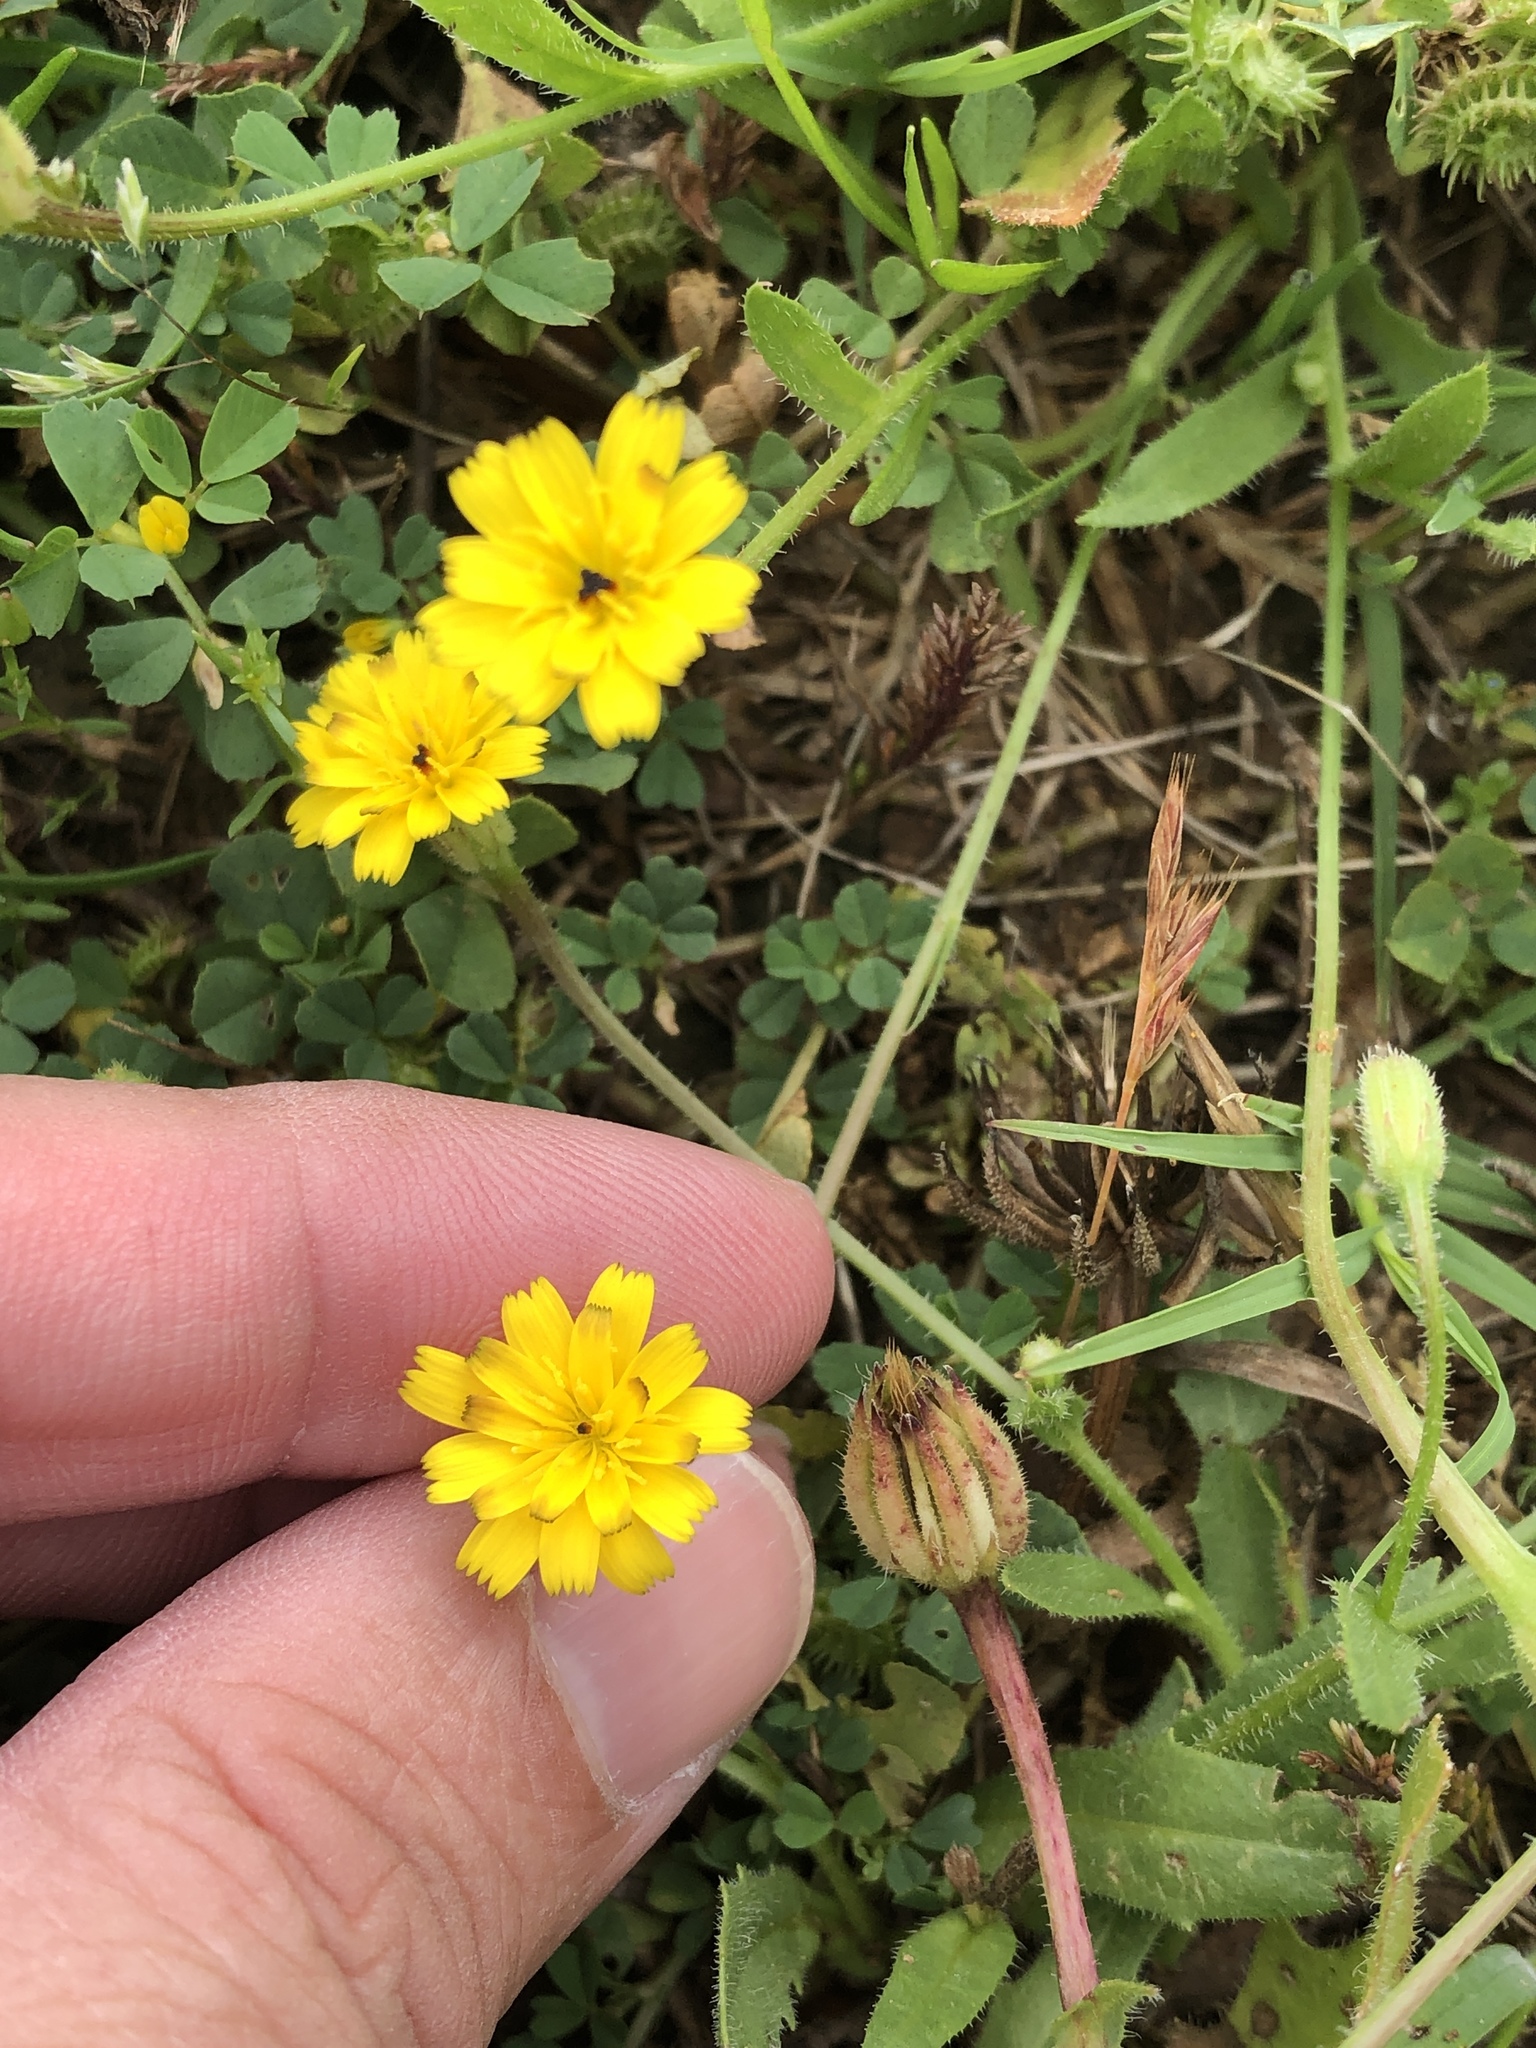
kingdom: Plantae
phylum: Tracheophyta
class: Magnoliopsida
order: Asterales
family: Asteraceae
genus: Hedypnois
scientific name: Hedypnois rhagadioloides
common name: Cretan weed
